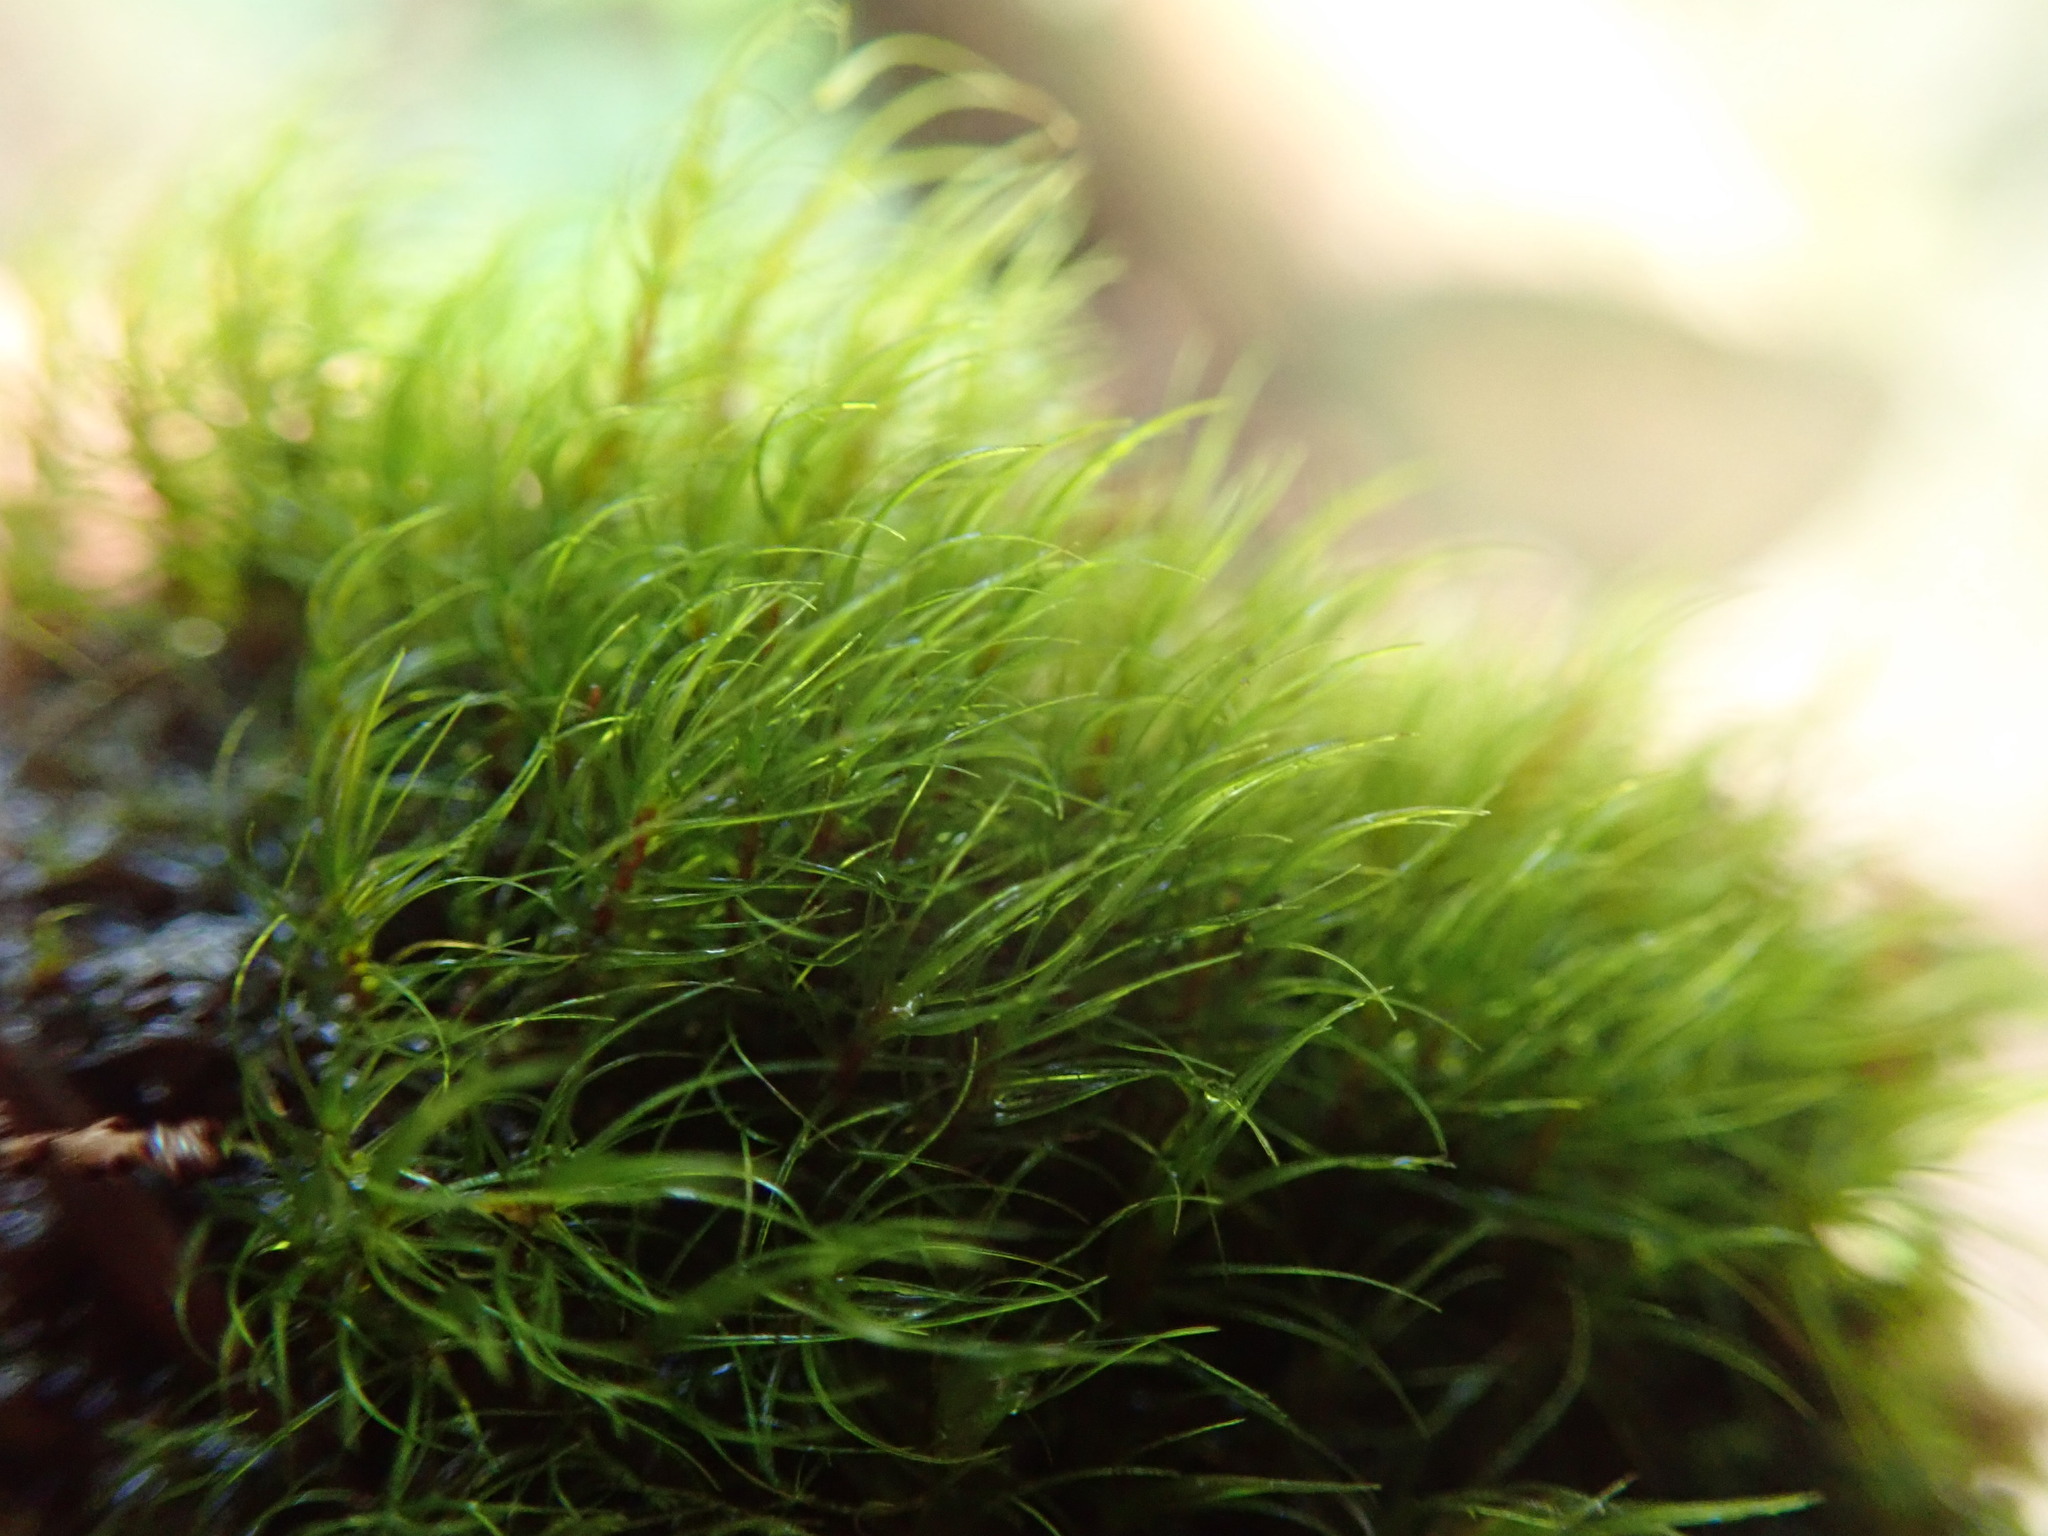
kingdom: Plantae
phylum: Bryophyta
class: Bryopsida
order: Dicranales
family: Leucobryaceae
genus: Campylopus
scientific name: Campylopus atrovirens
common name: Bristly swan-neck moss
